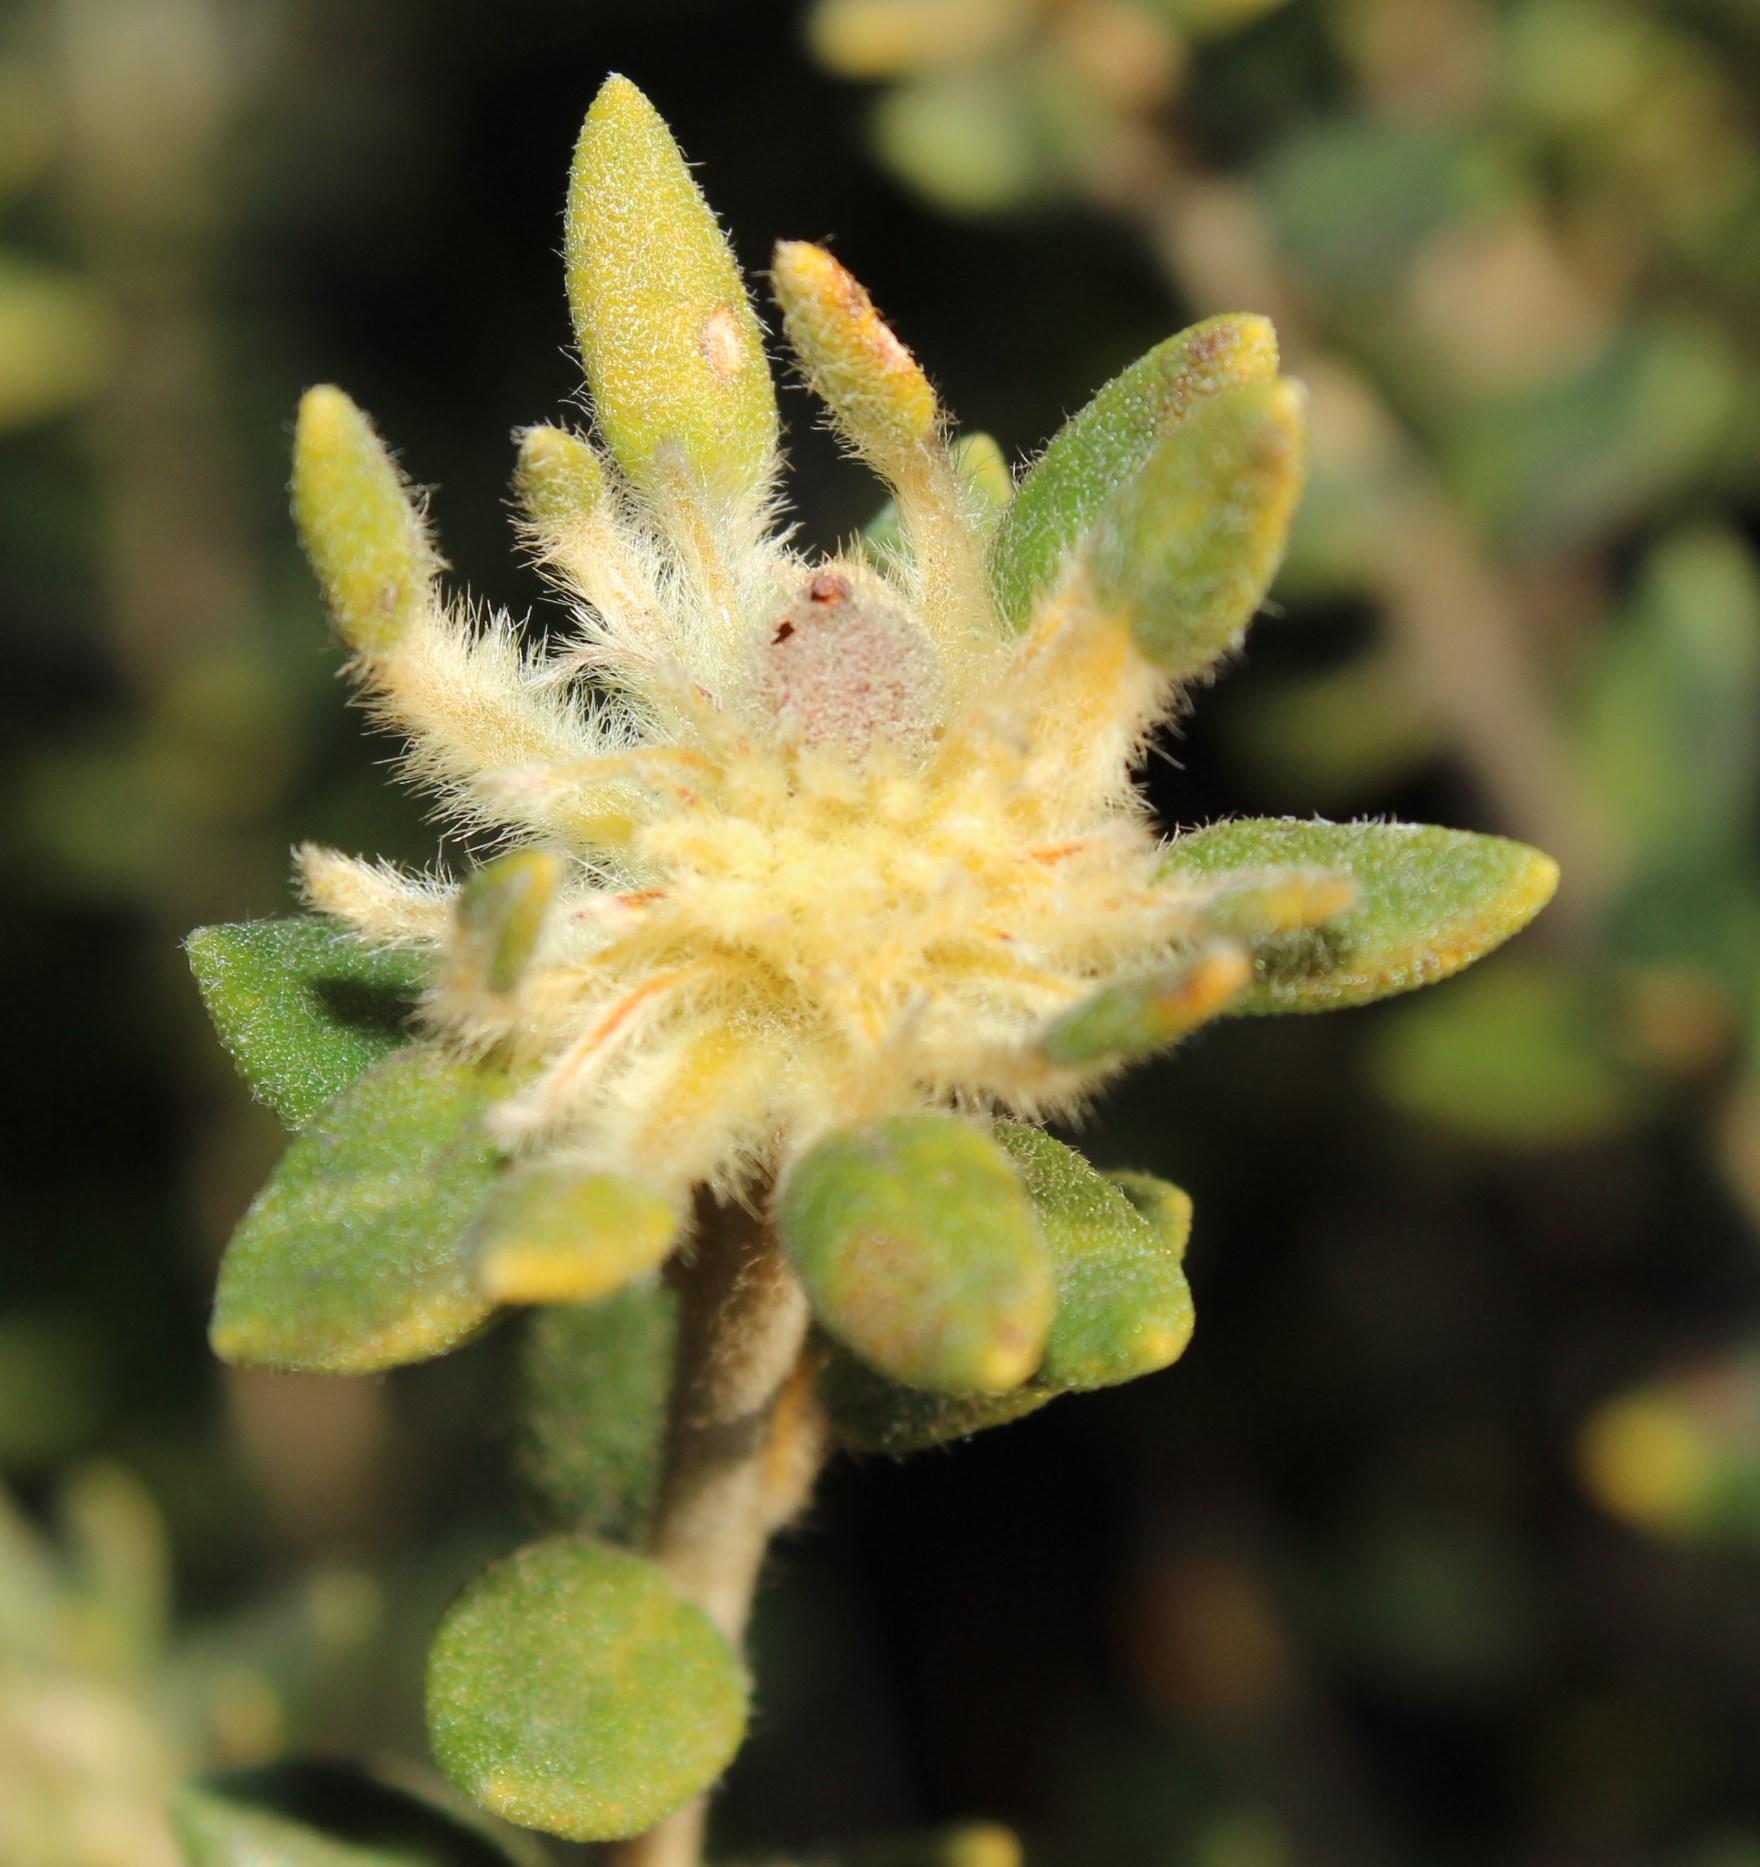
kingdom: Plantae
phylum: Tracheophyta
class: Magnoliopsida
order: Rosales
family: Rhamnaceae
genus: Phylica
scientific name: Phylica dioica
